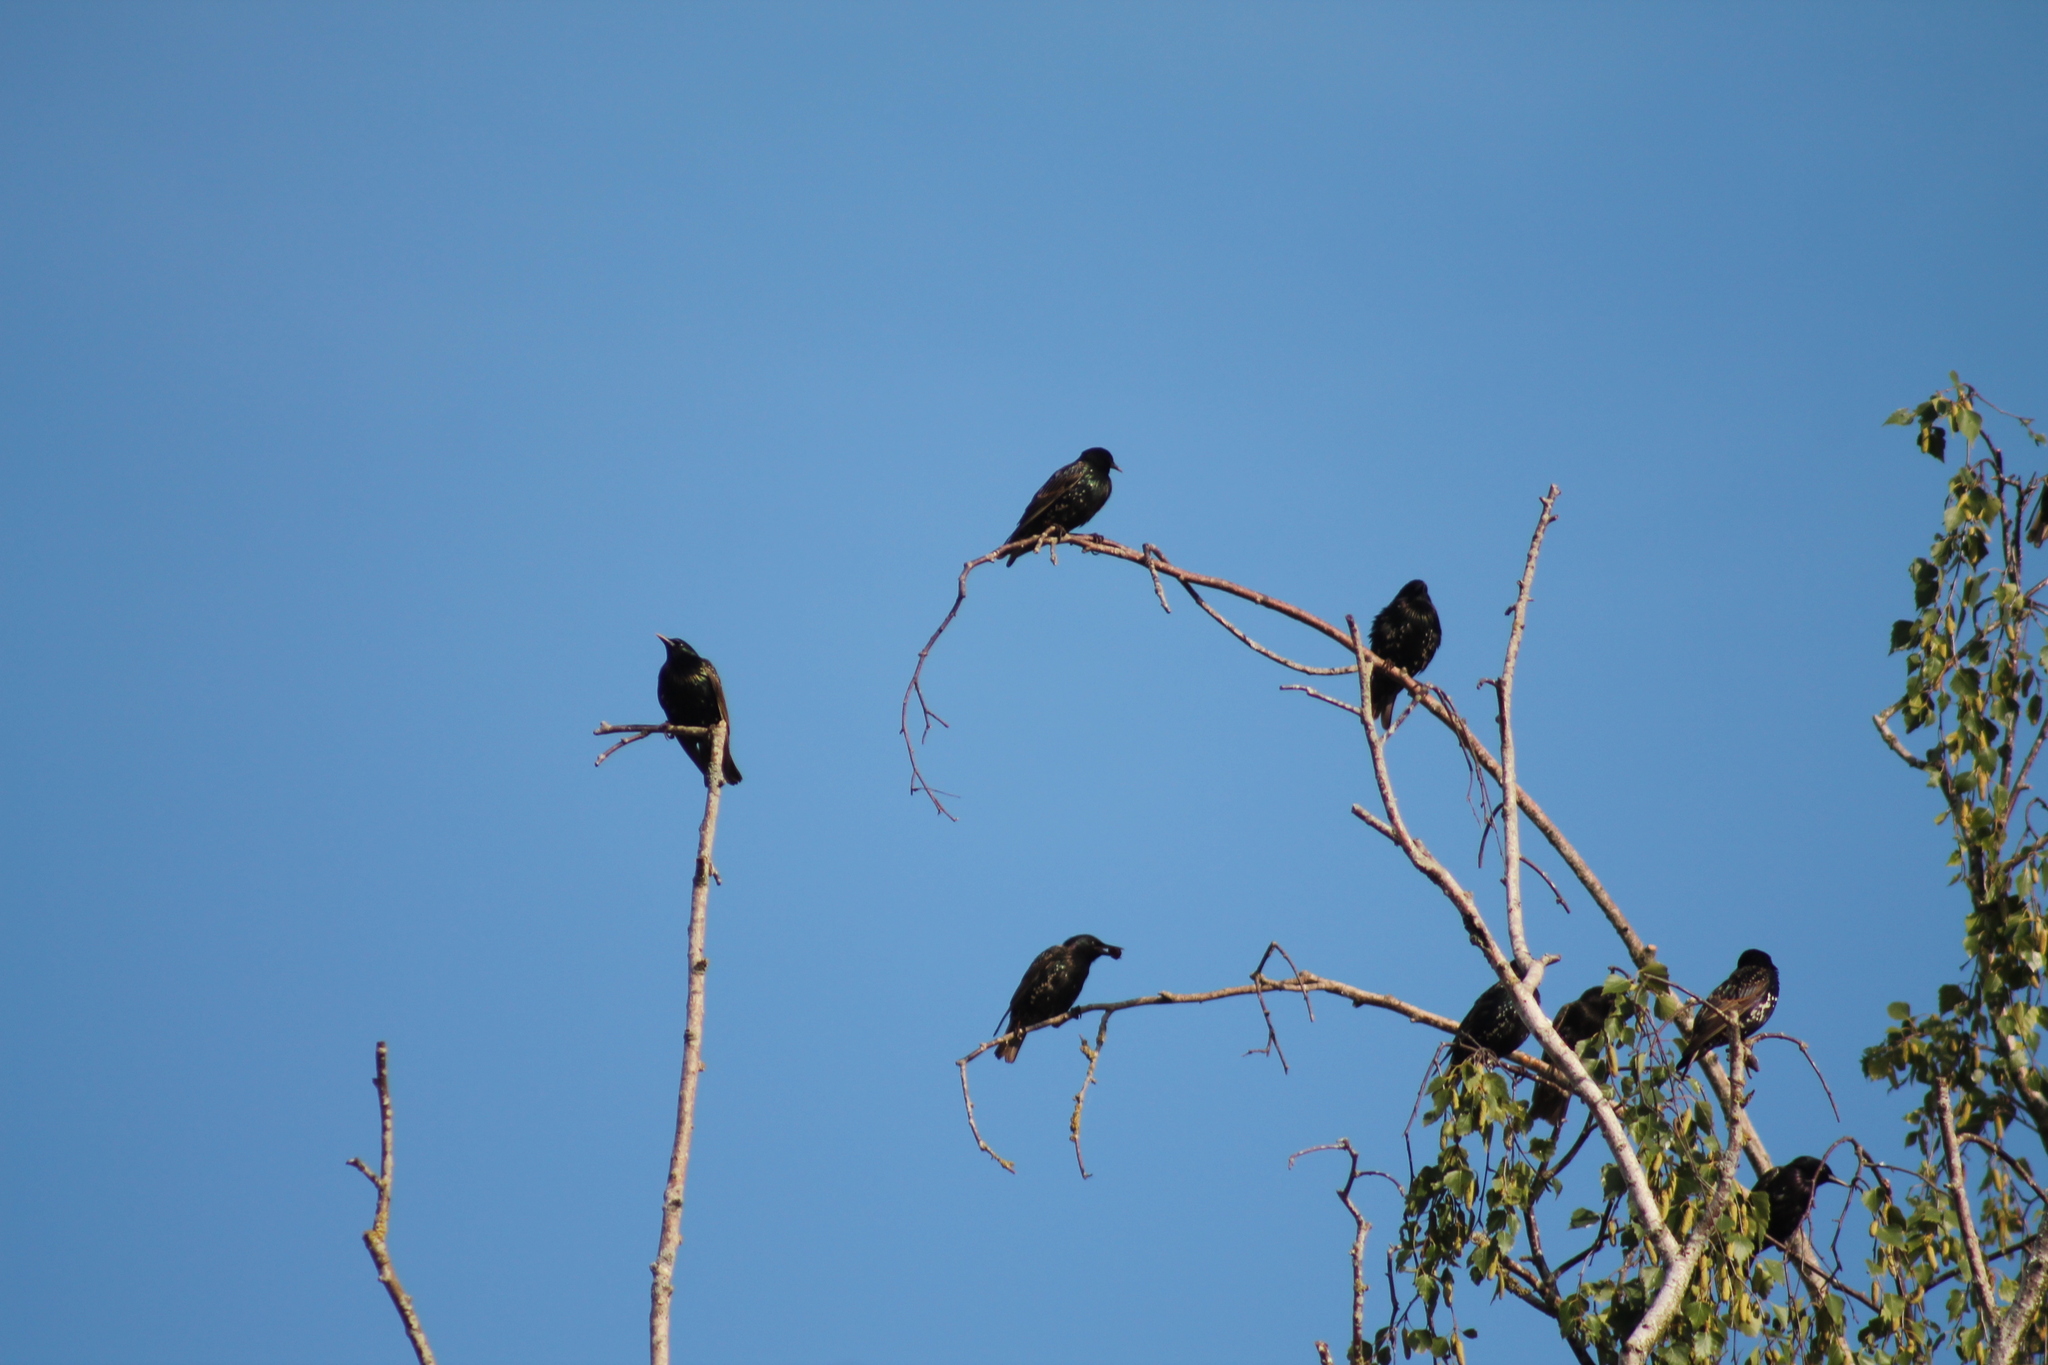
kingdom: Animalia
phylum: Chordata
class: Aves
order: Passeriformes
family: Sturnidae
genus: Sturnus
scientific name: Sturnus vulgaris
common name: Common starling
